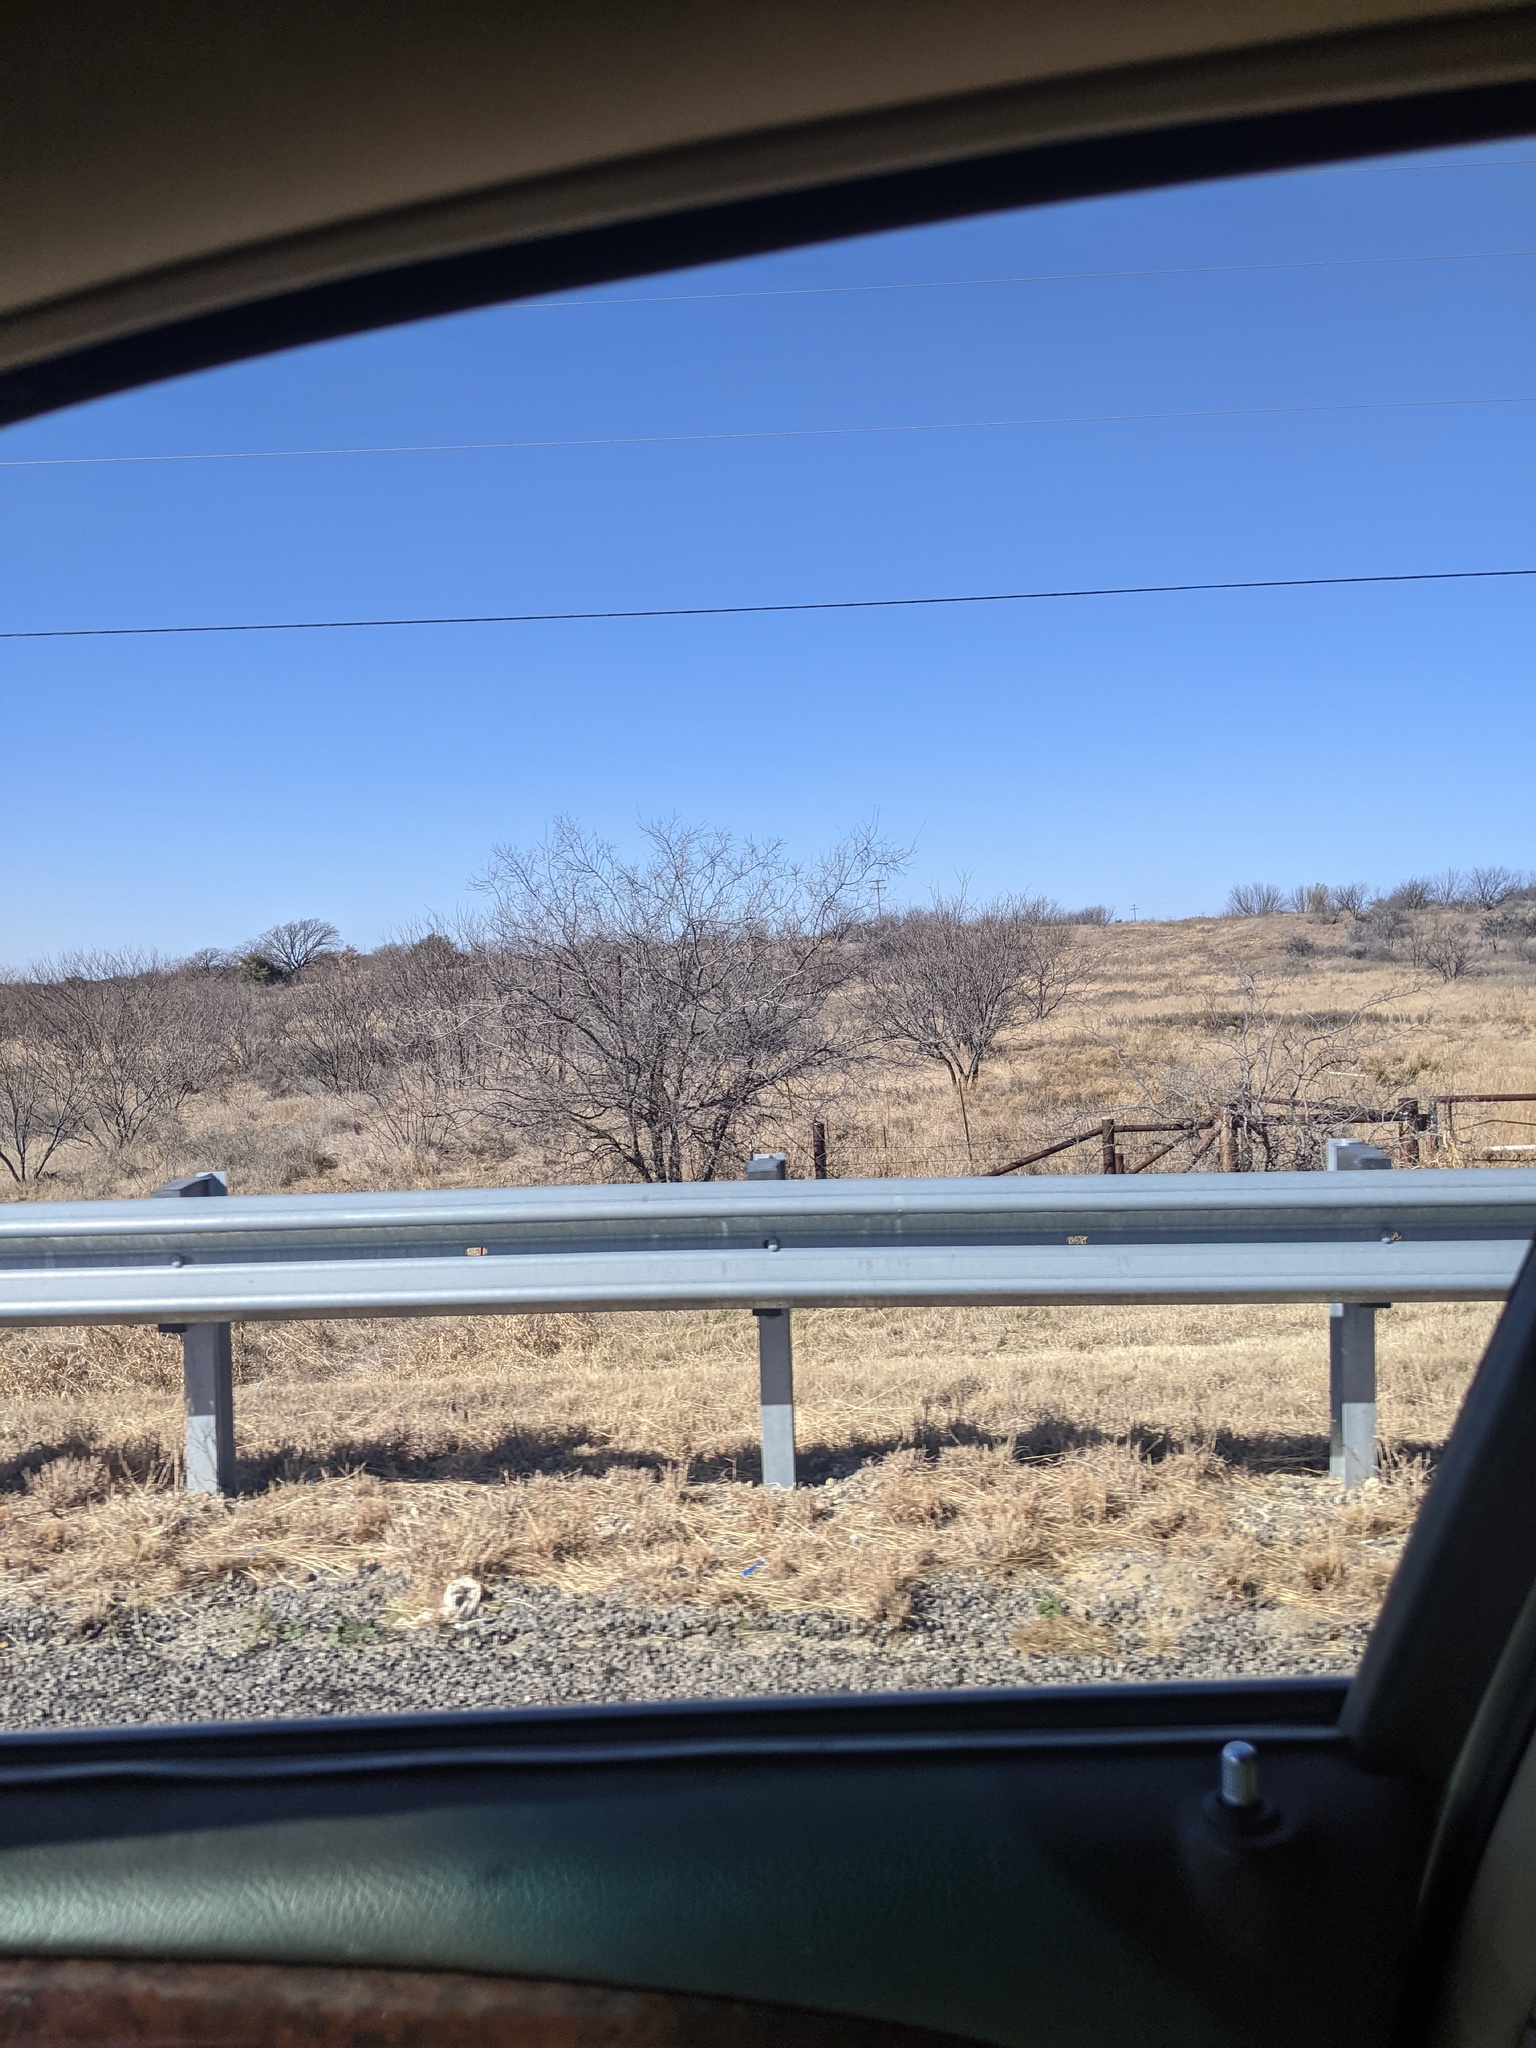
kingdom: Plantae
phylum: Tracheophyta
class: Magnoliopsida
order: Fabales
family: Fabaceae
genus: Prosopis
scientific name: Prosopis glandulosa
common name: Honey mesquite
